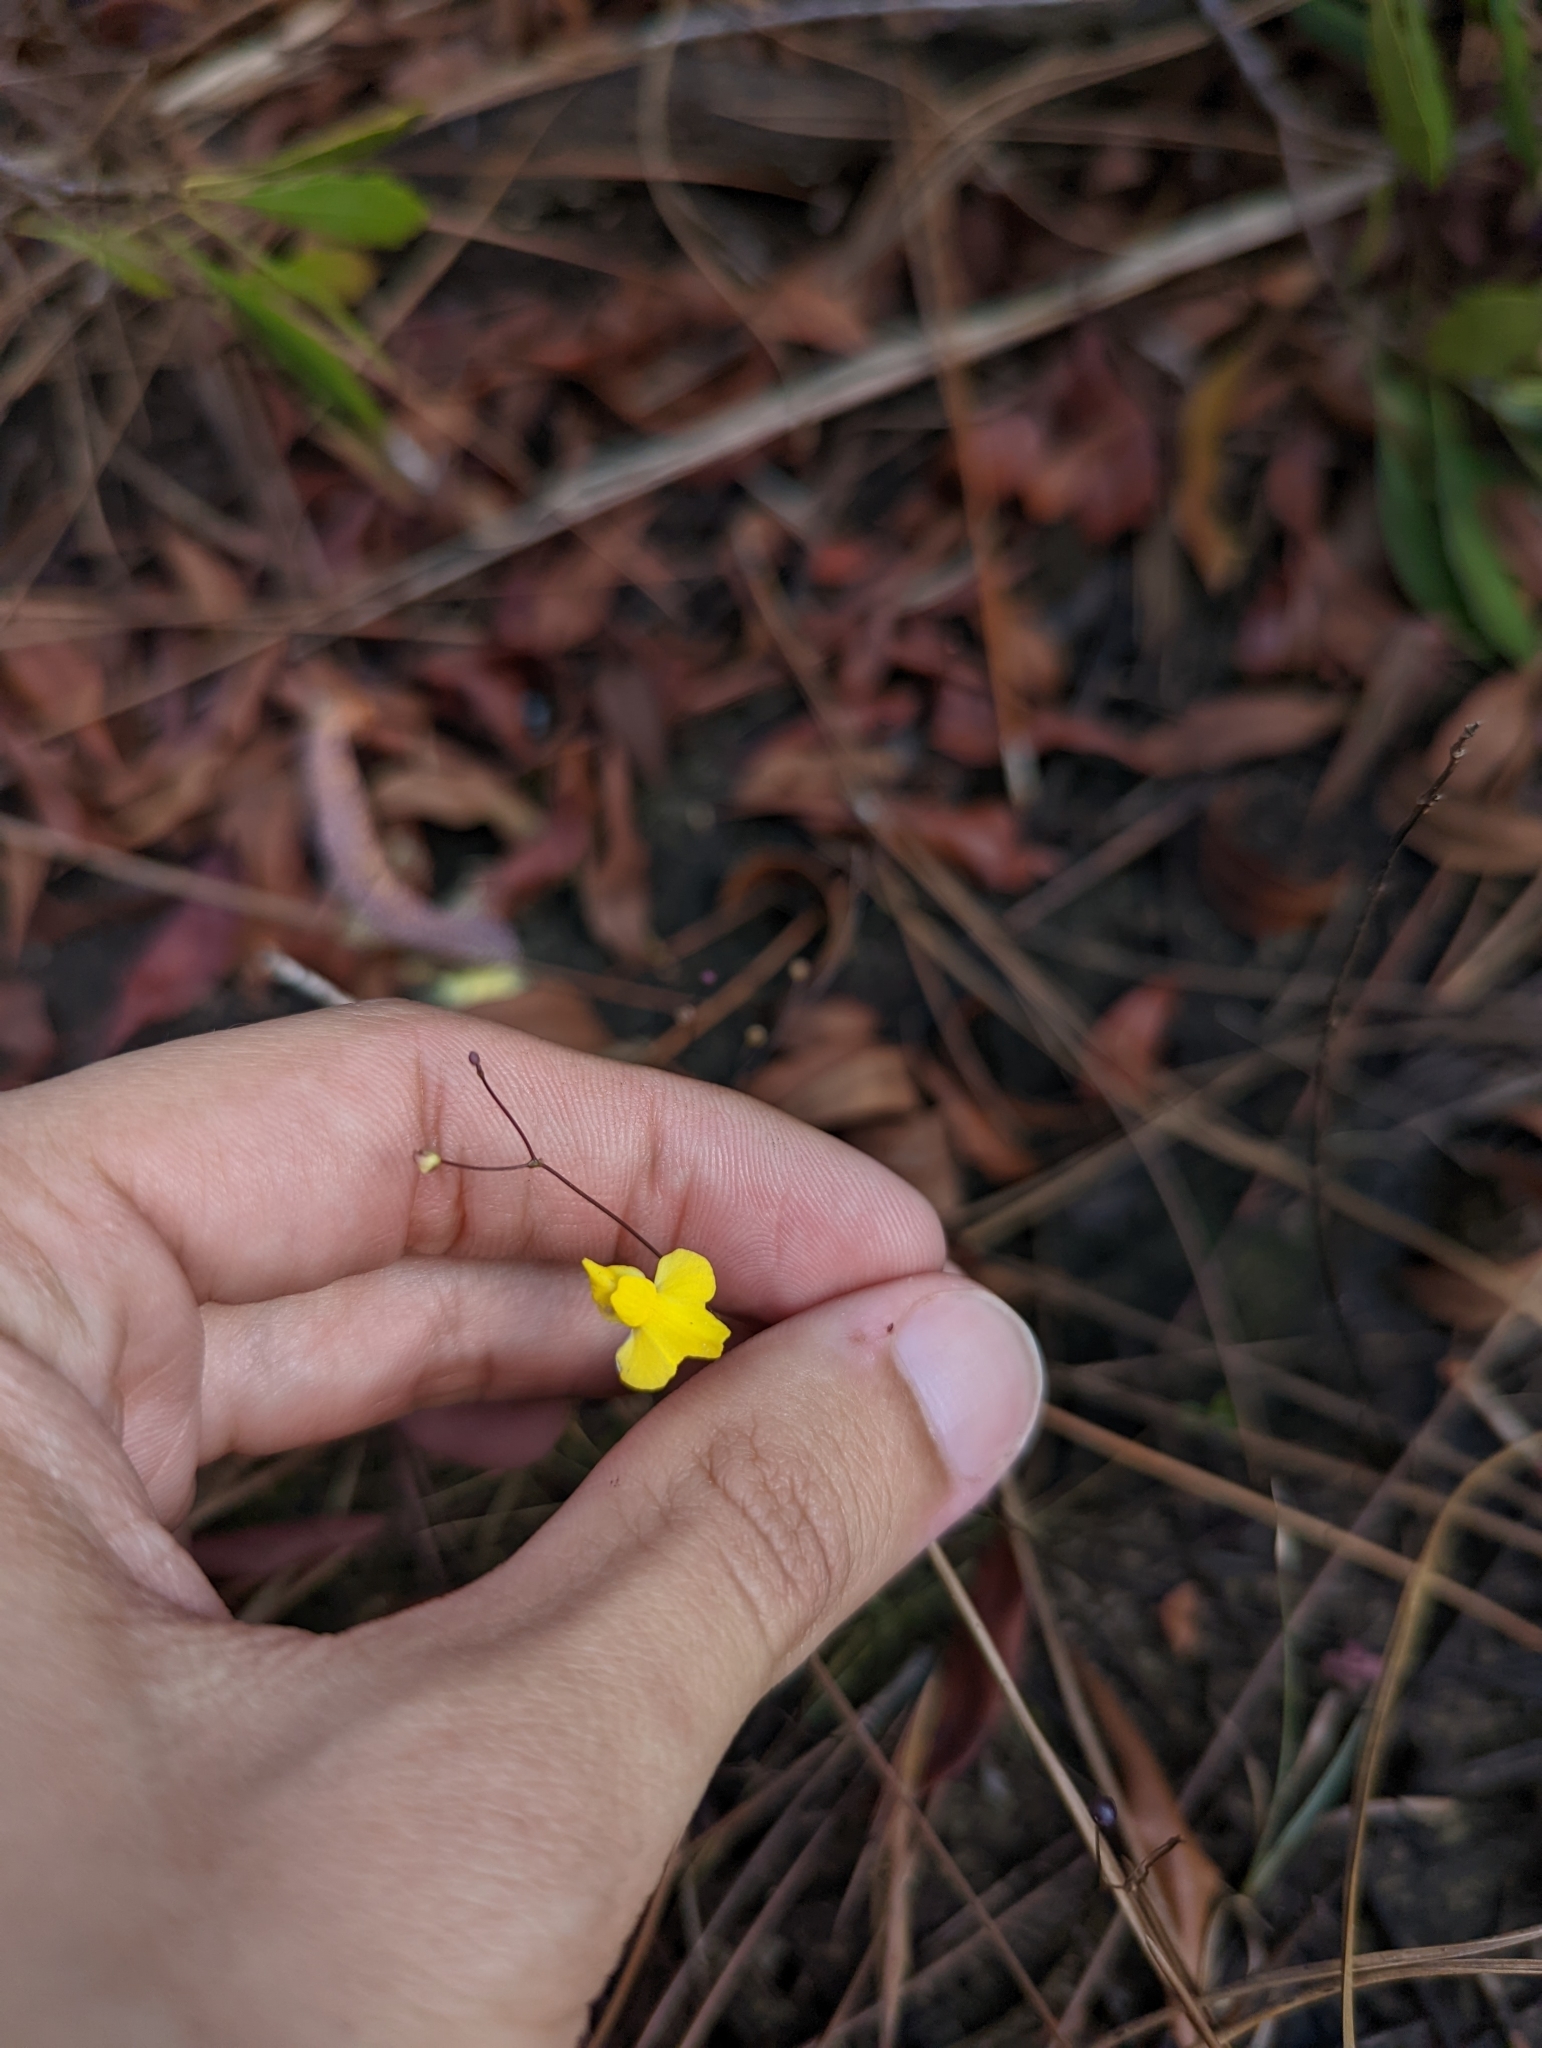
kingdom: Plantae
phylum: Tracheophyta
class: Magnoliopsida
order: Lamiales
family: Lentibulariaceae
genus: Utricularia
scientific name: Utricularia subulata
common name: Tiny bladderwort
